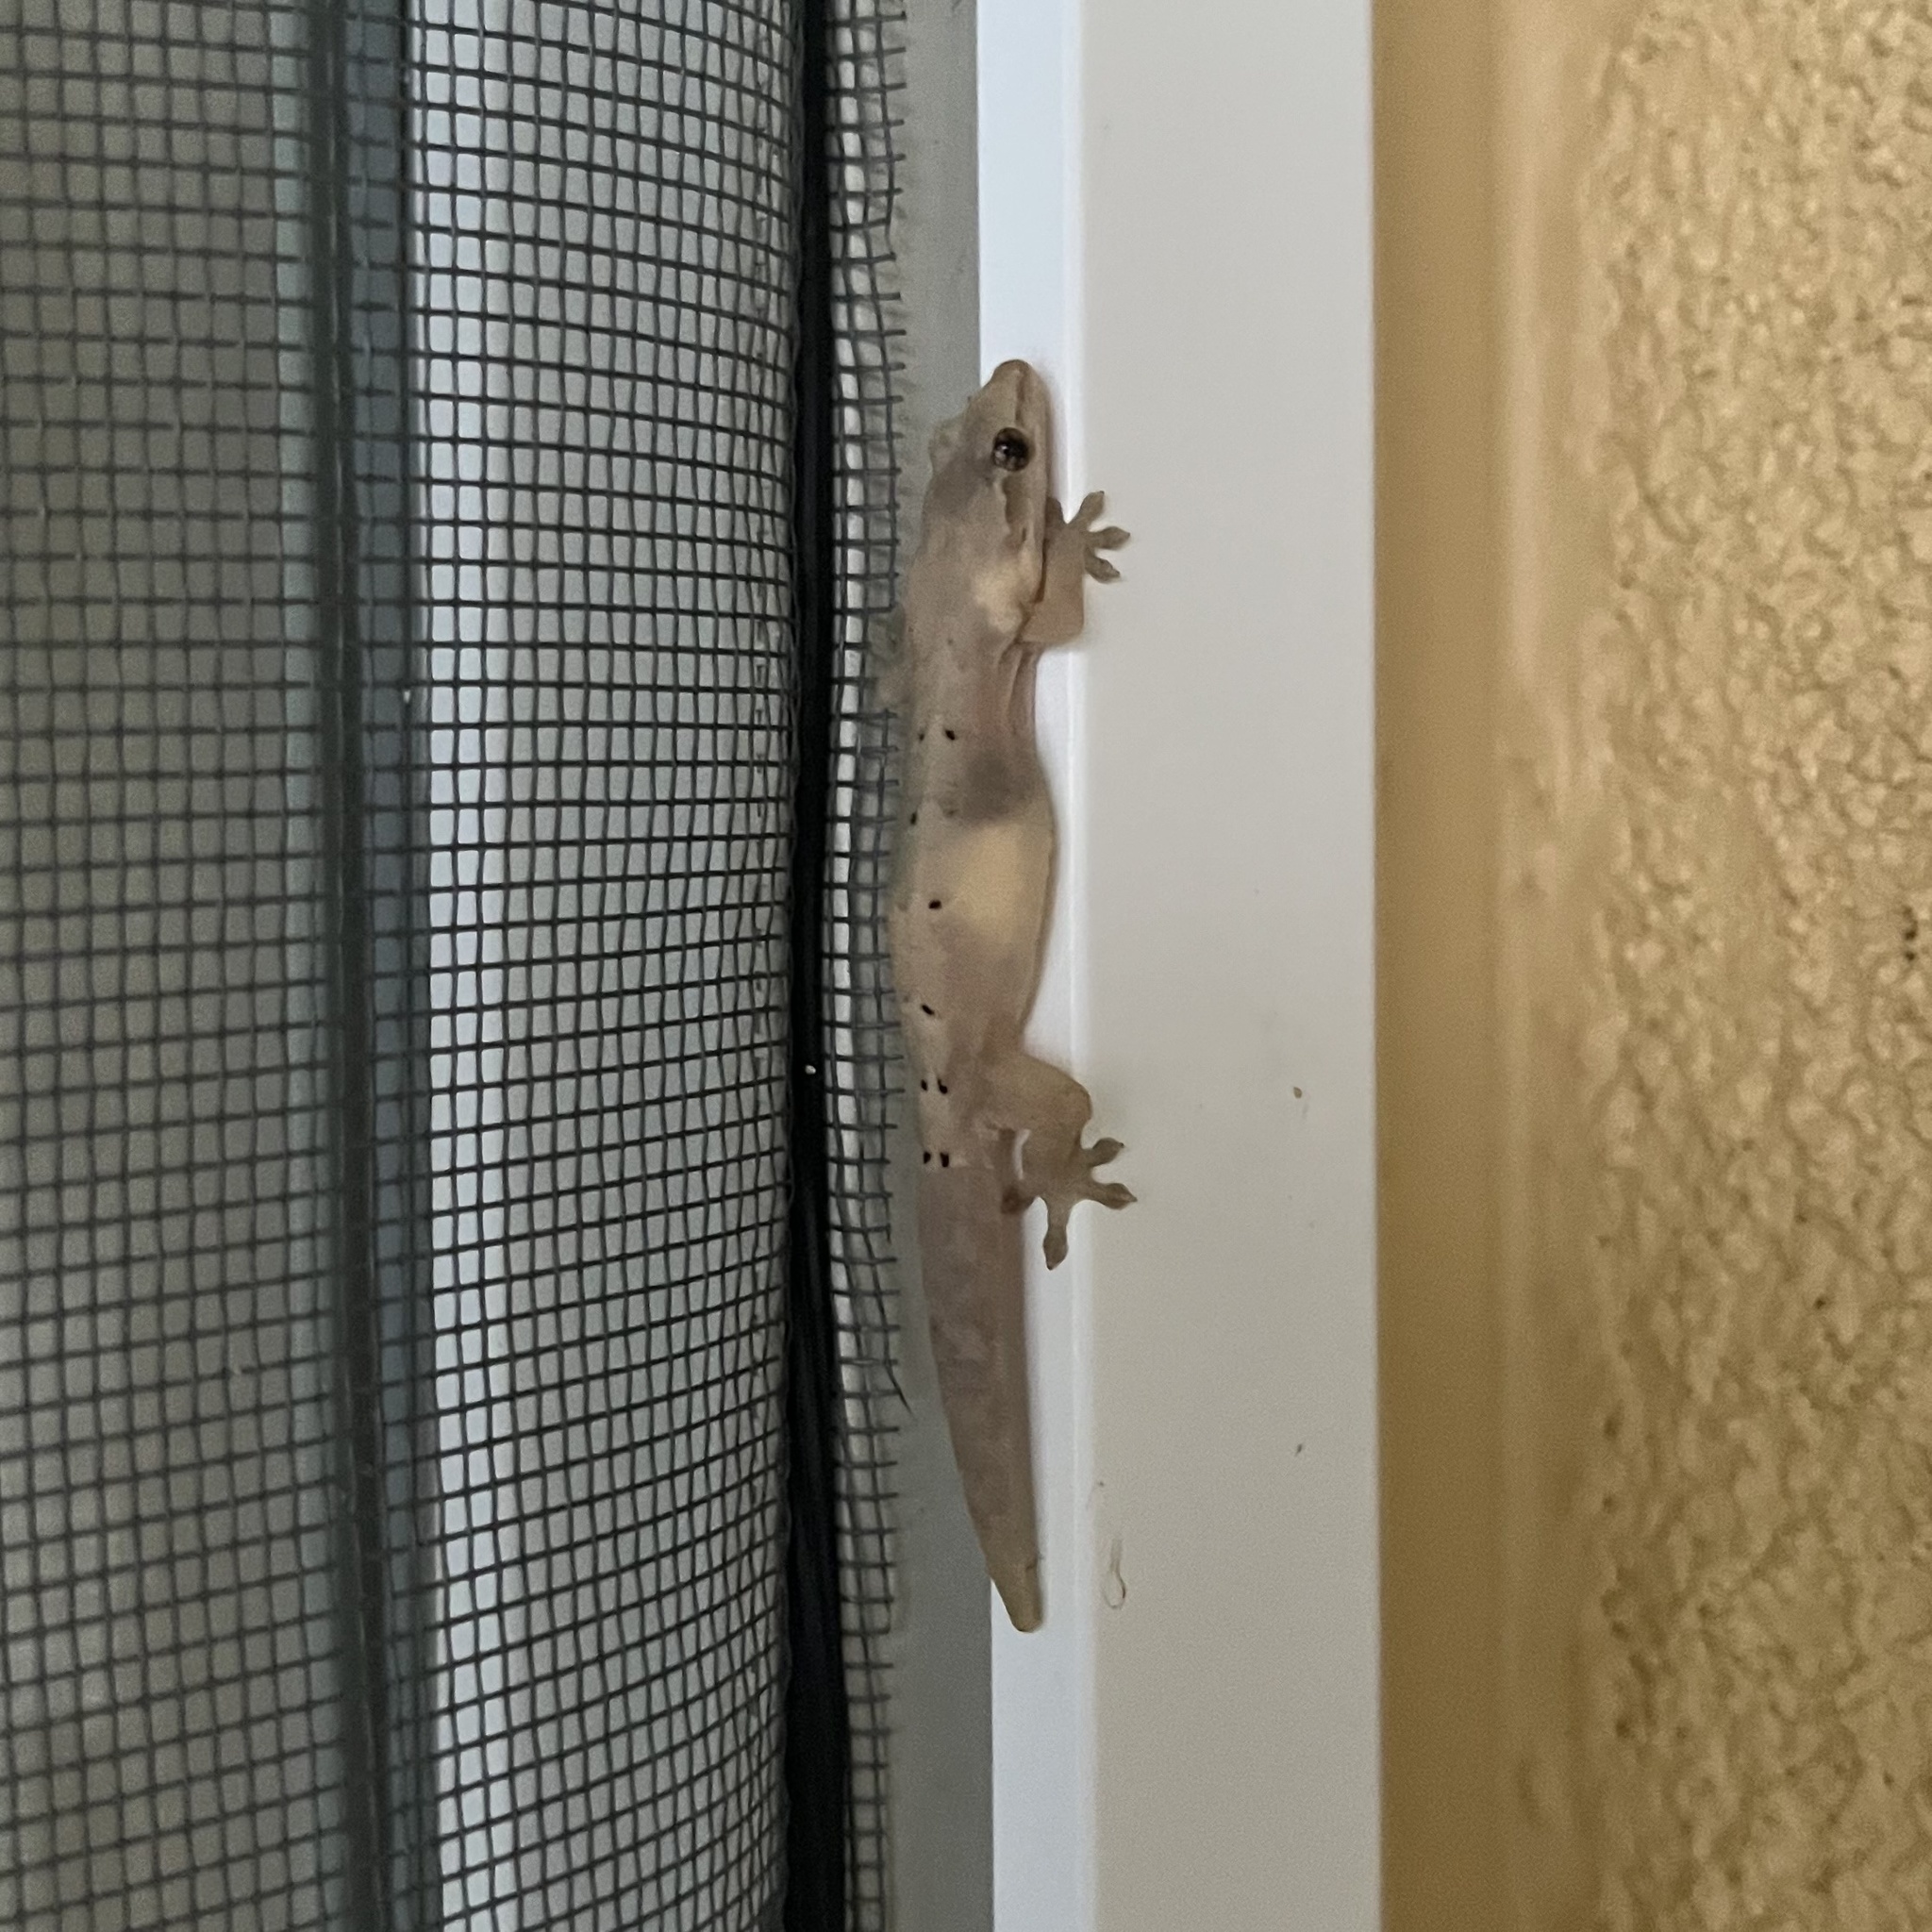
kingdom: Animalia
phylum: Chordata
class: Squamata
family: Gekkonidae
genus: Lepidodactylus
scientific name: Lepidodactylus lugubris
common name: Mourning gecko
